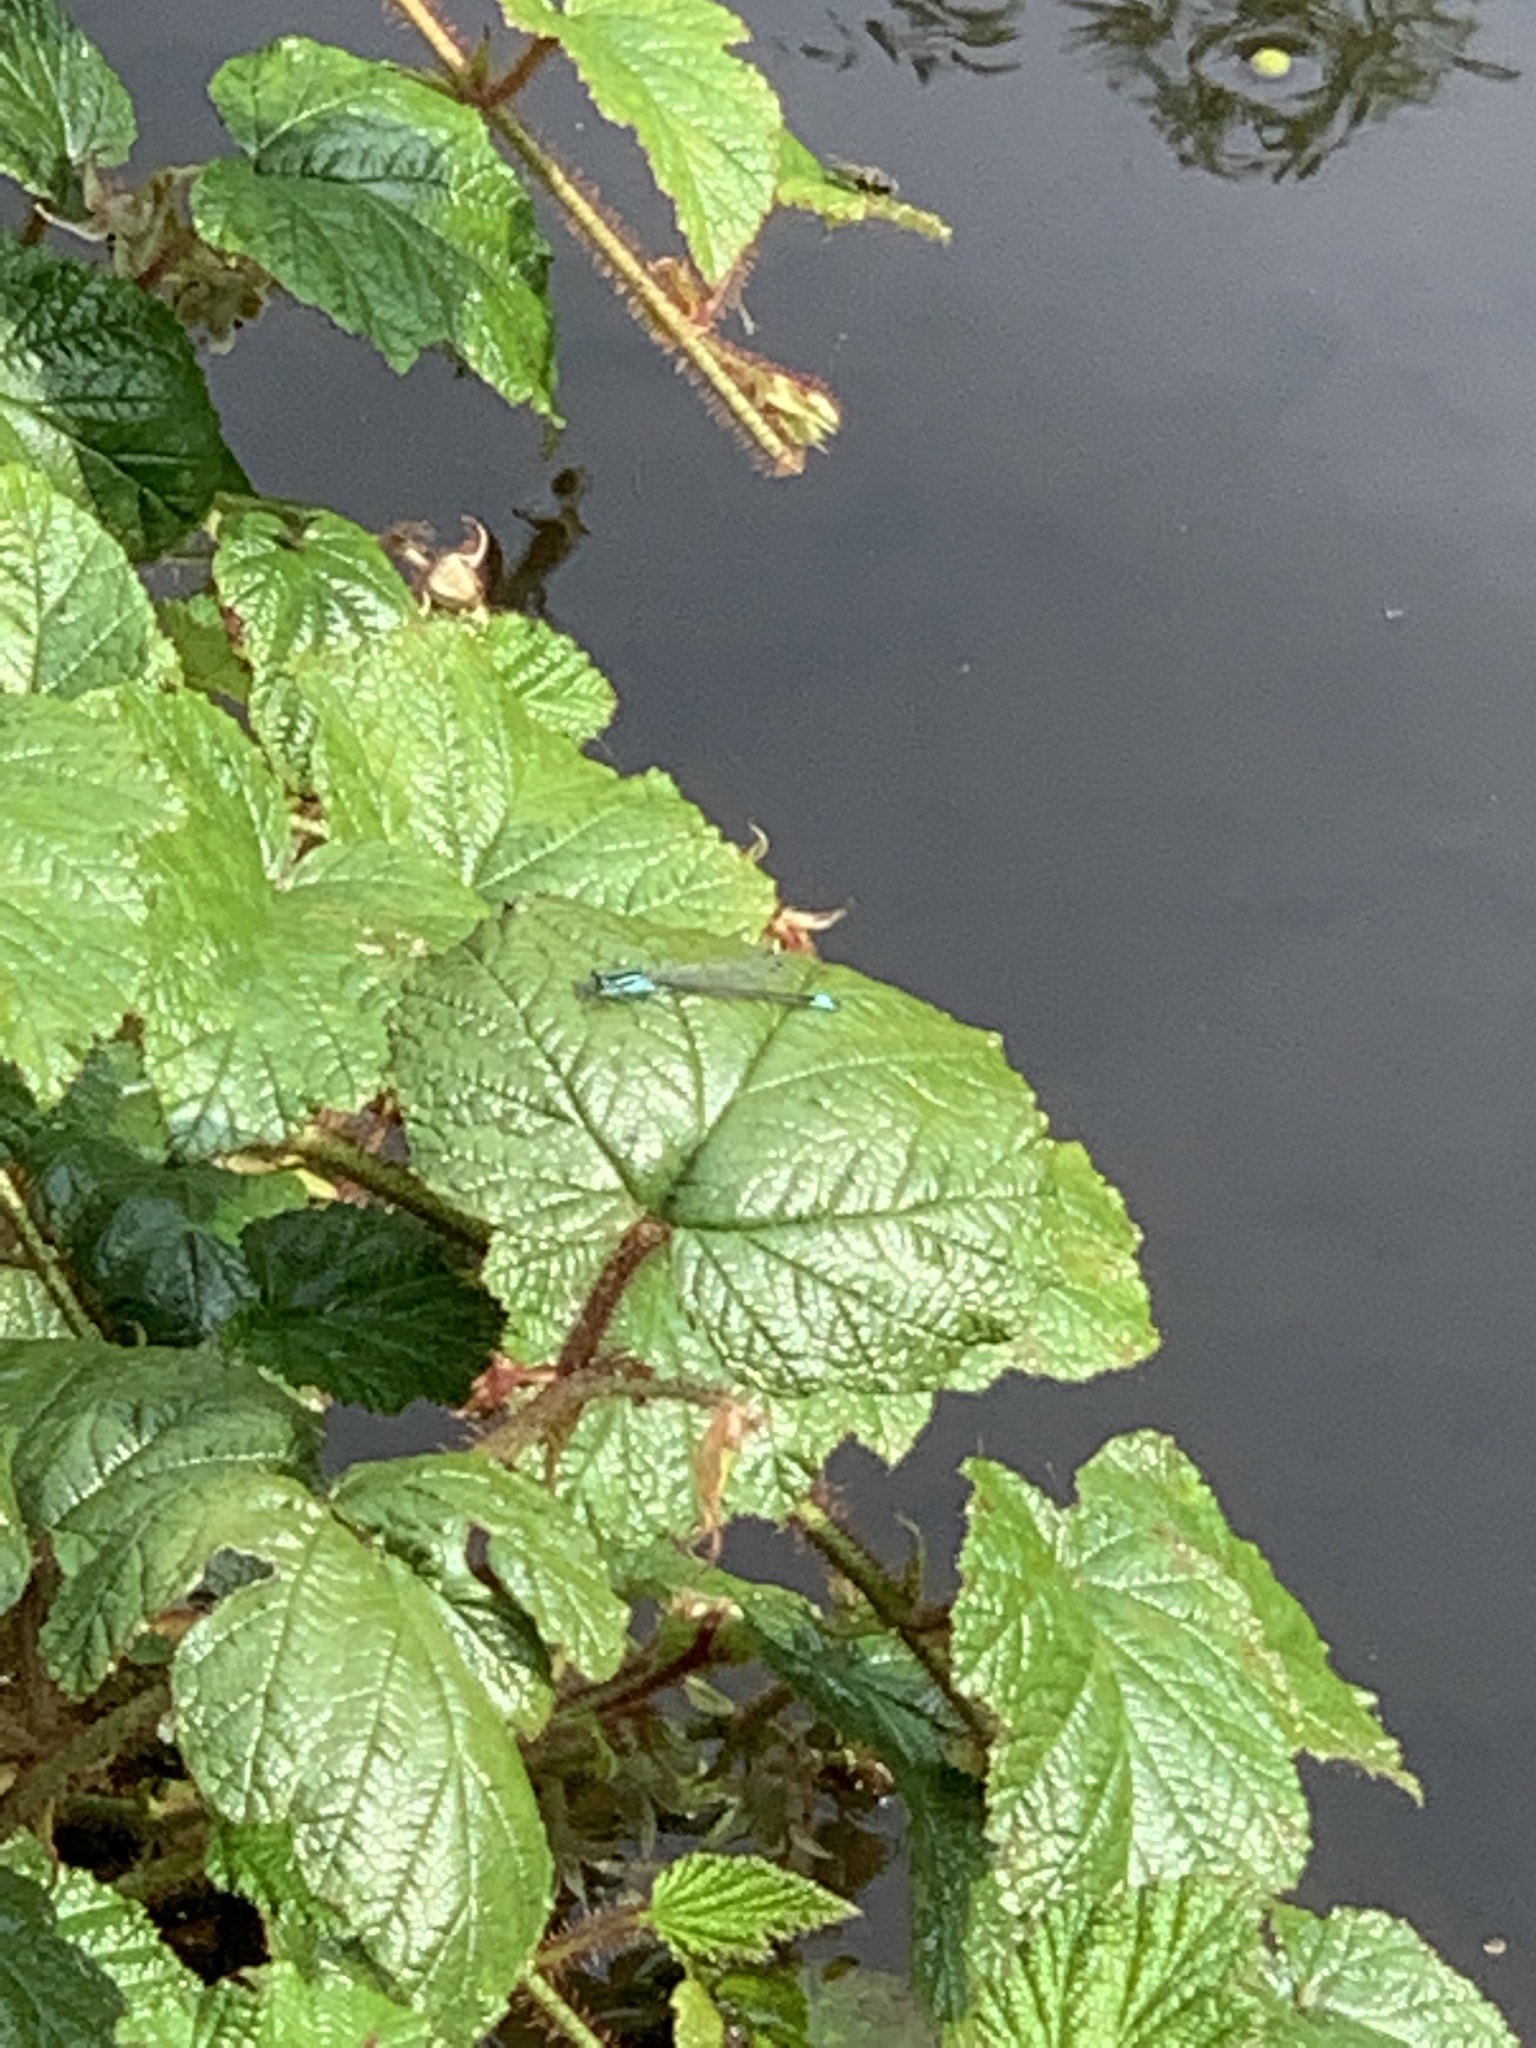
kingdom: Animalia
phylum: Arthropoda
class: Insecta
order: Odonata
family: Coenagrionidae
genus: Ischnura
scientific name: Ischnura elegans
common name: Blue-tailed damselfly
